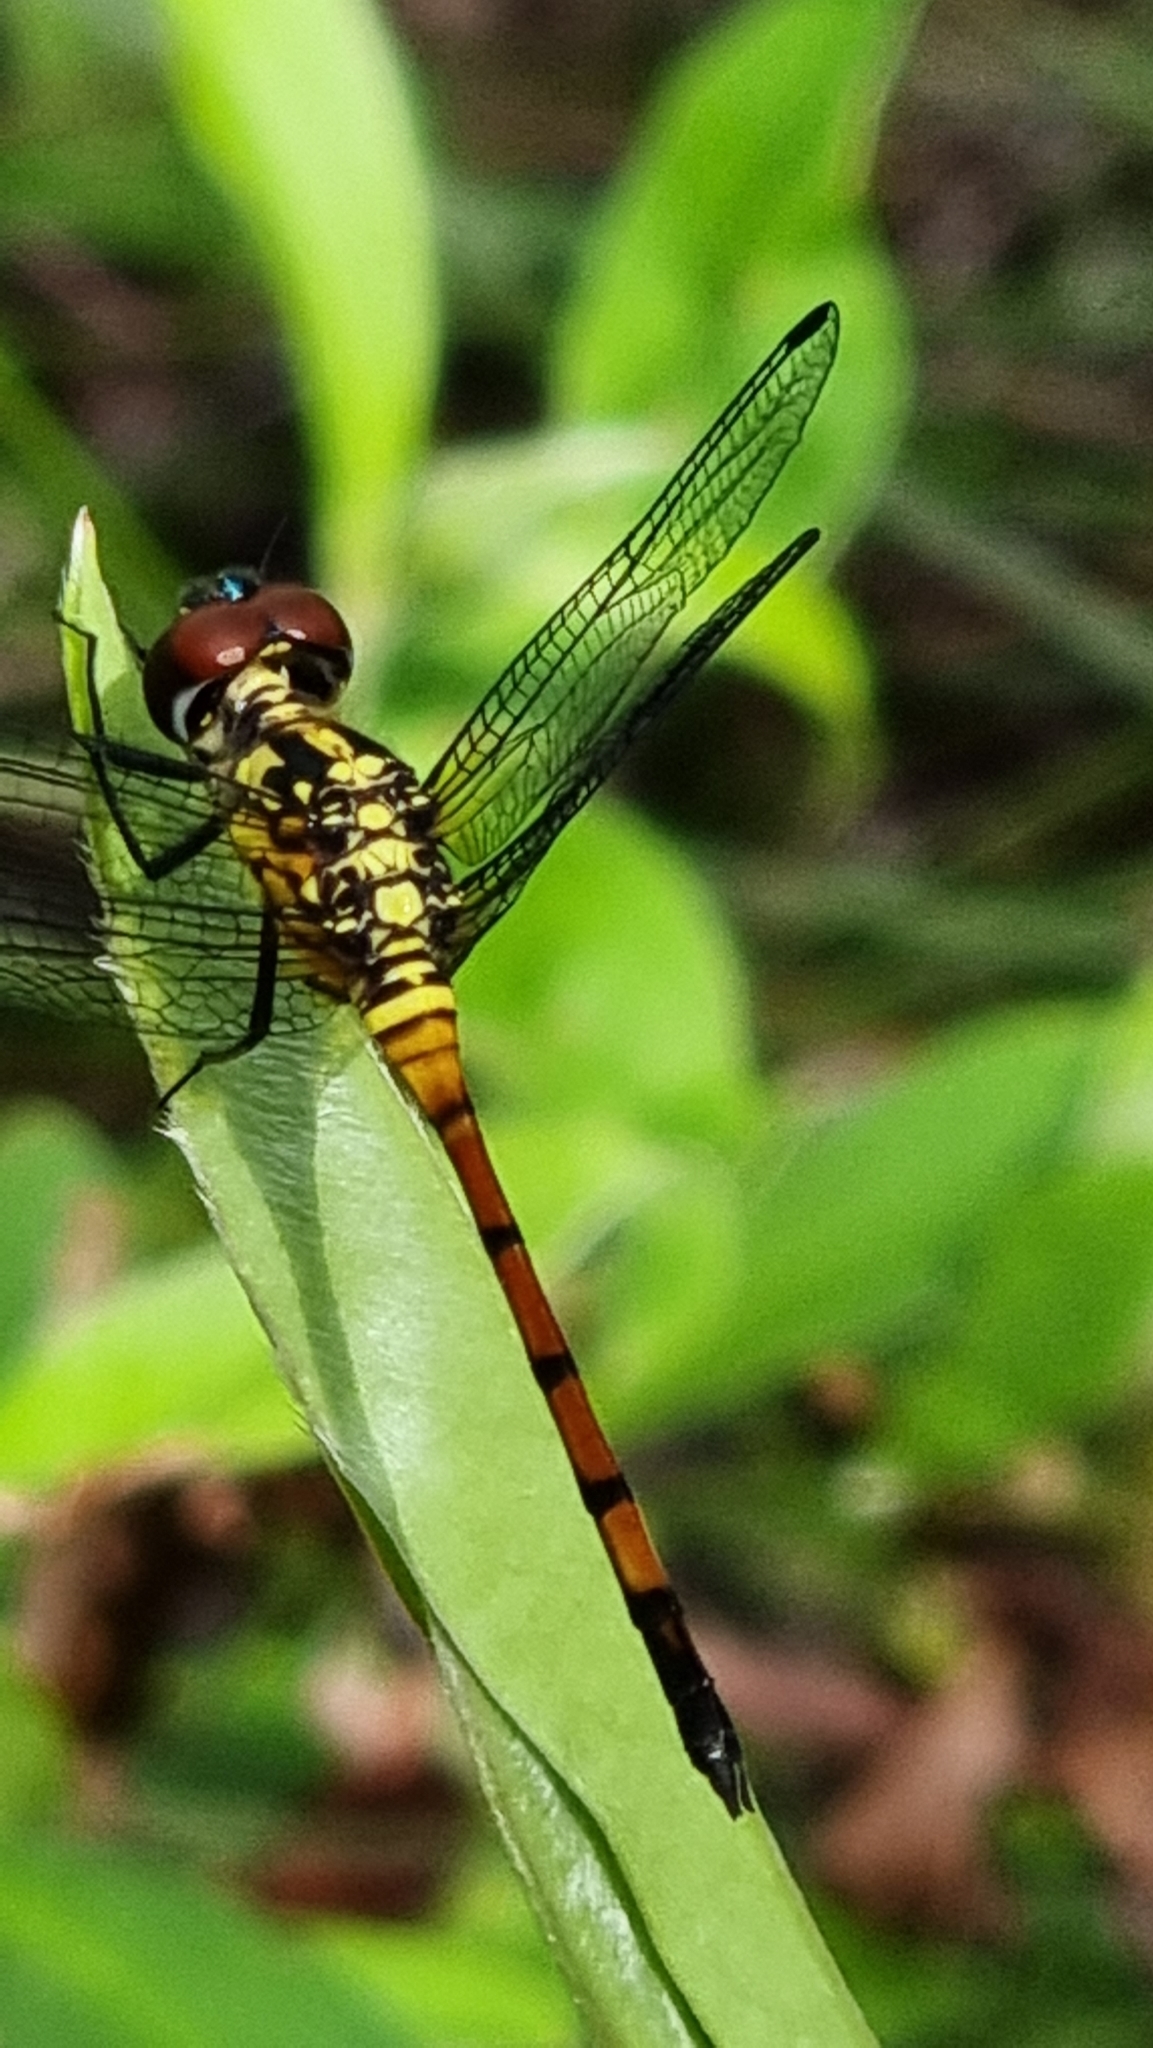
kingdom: Animalia
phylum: Arthropoda
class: Insecta
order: Odonata
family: Libellulidae
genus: Agrionoptera
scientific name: Agrionoptera insignis
